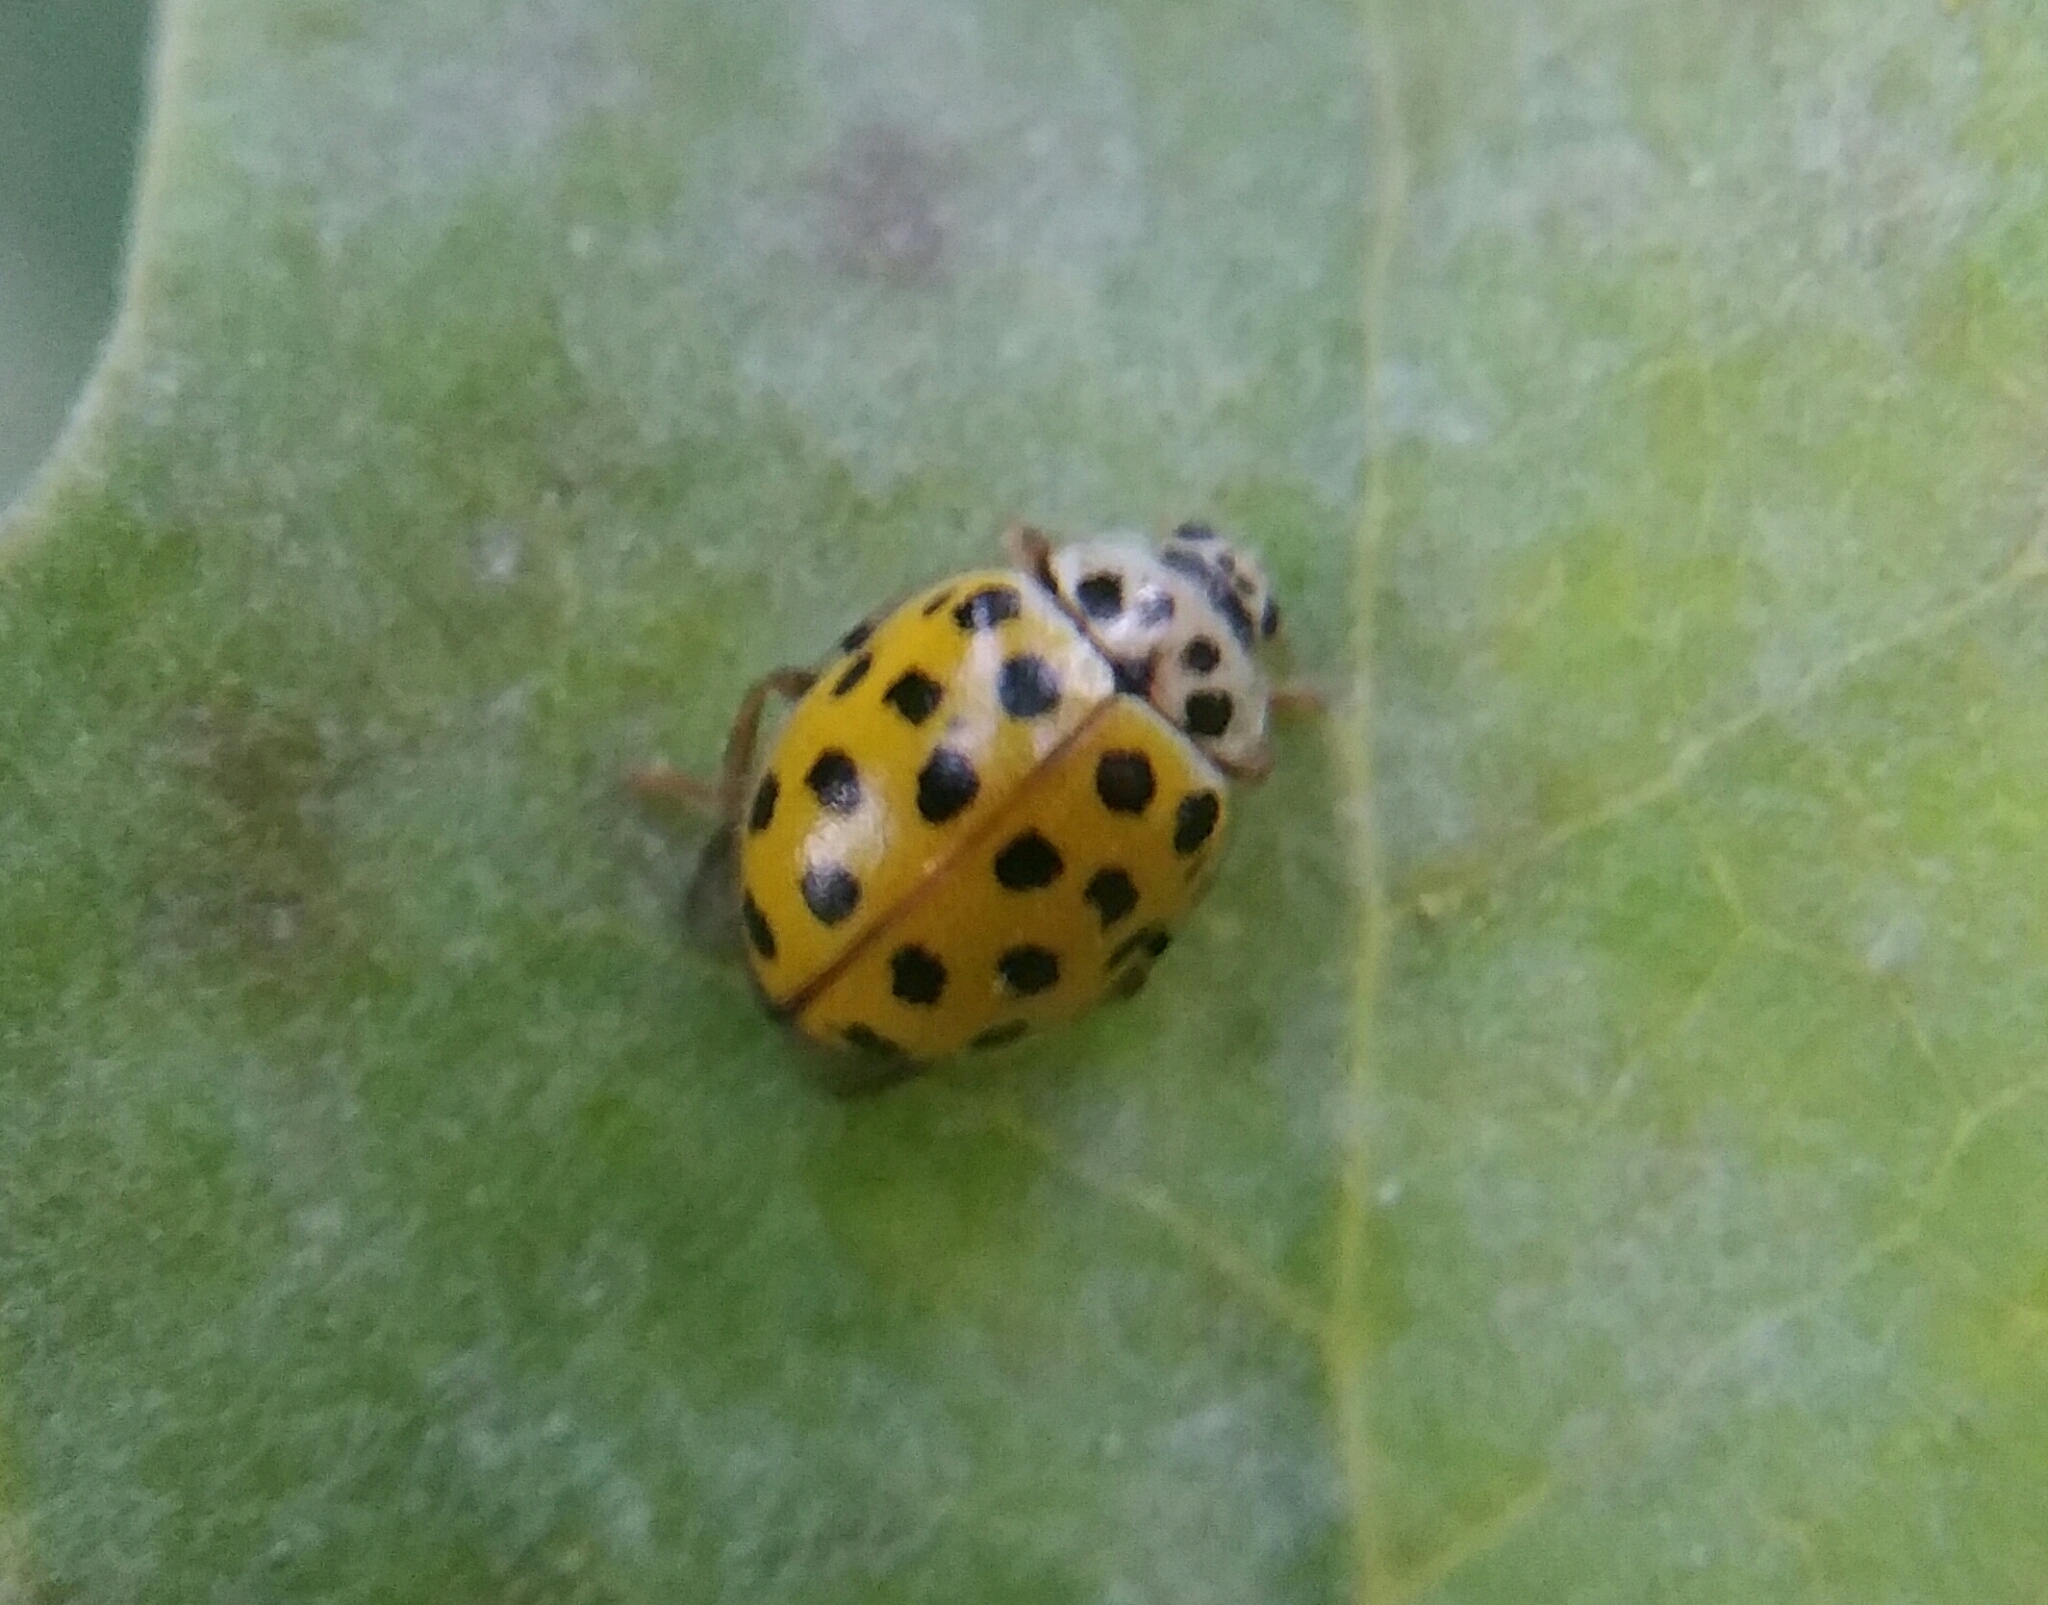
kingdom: Animalia
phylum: Arthropoda
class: Insecta
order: Coleoptera
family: Coccinellidae
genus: Psyllobora
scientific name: Psyllobora vigintiduopunctata
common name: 22-spot ladybird
